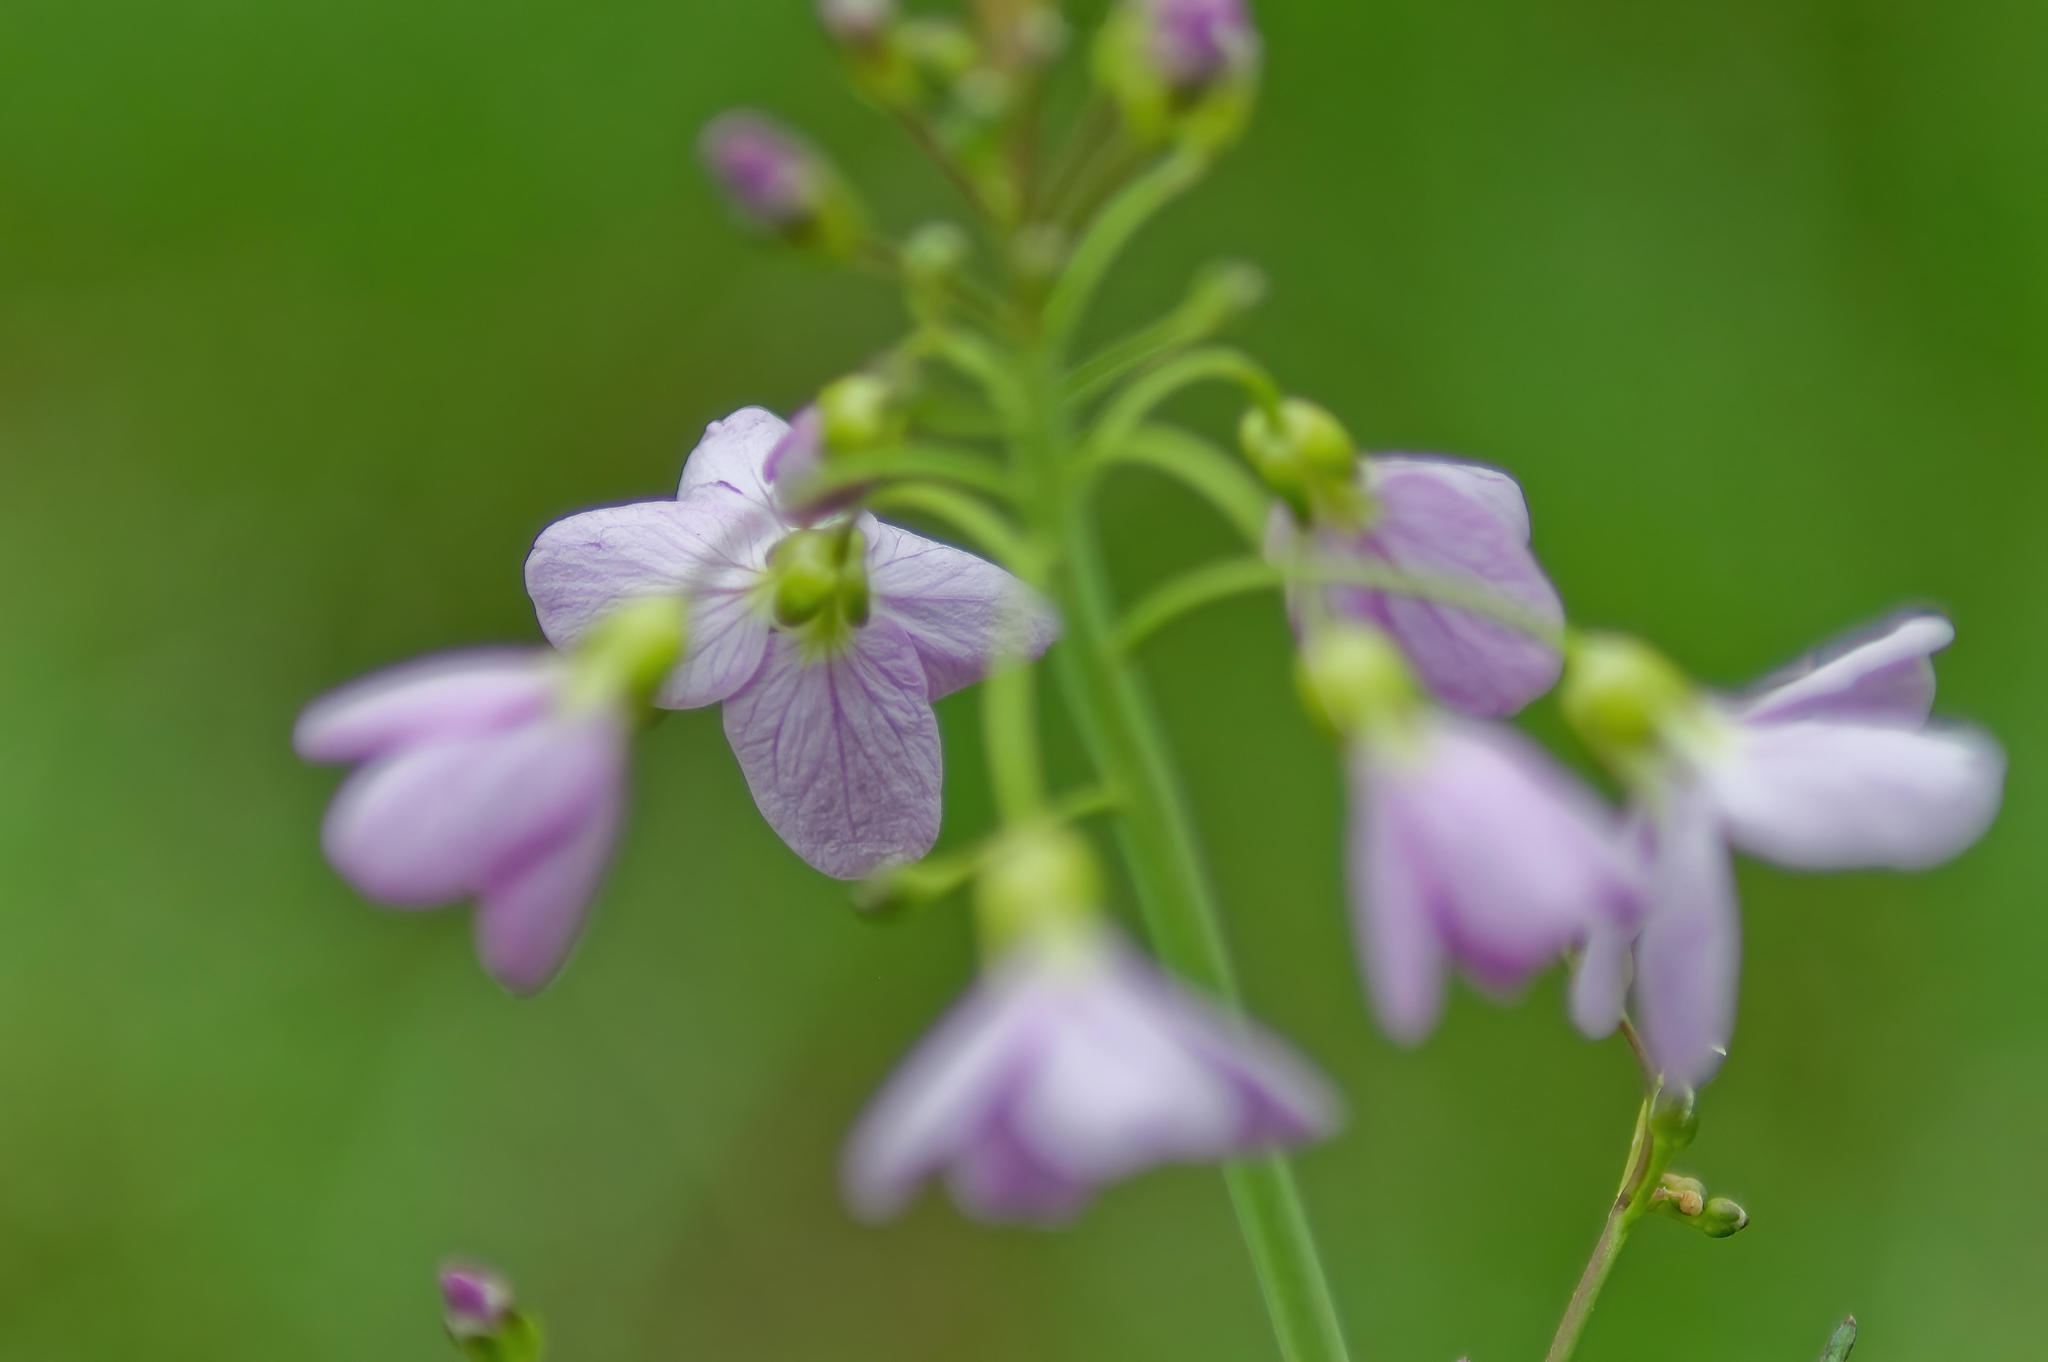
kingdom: Plantae
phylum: Tracheophyta
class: Magnoliopsida
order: Brassicales
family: Brassicaceae
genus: Cardamine
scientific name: Cardamine pratensis
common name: Cuckoo flower
